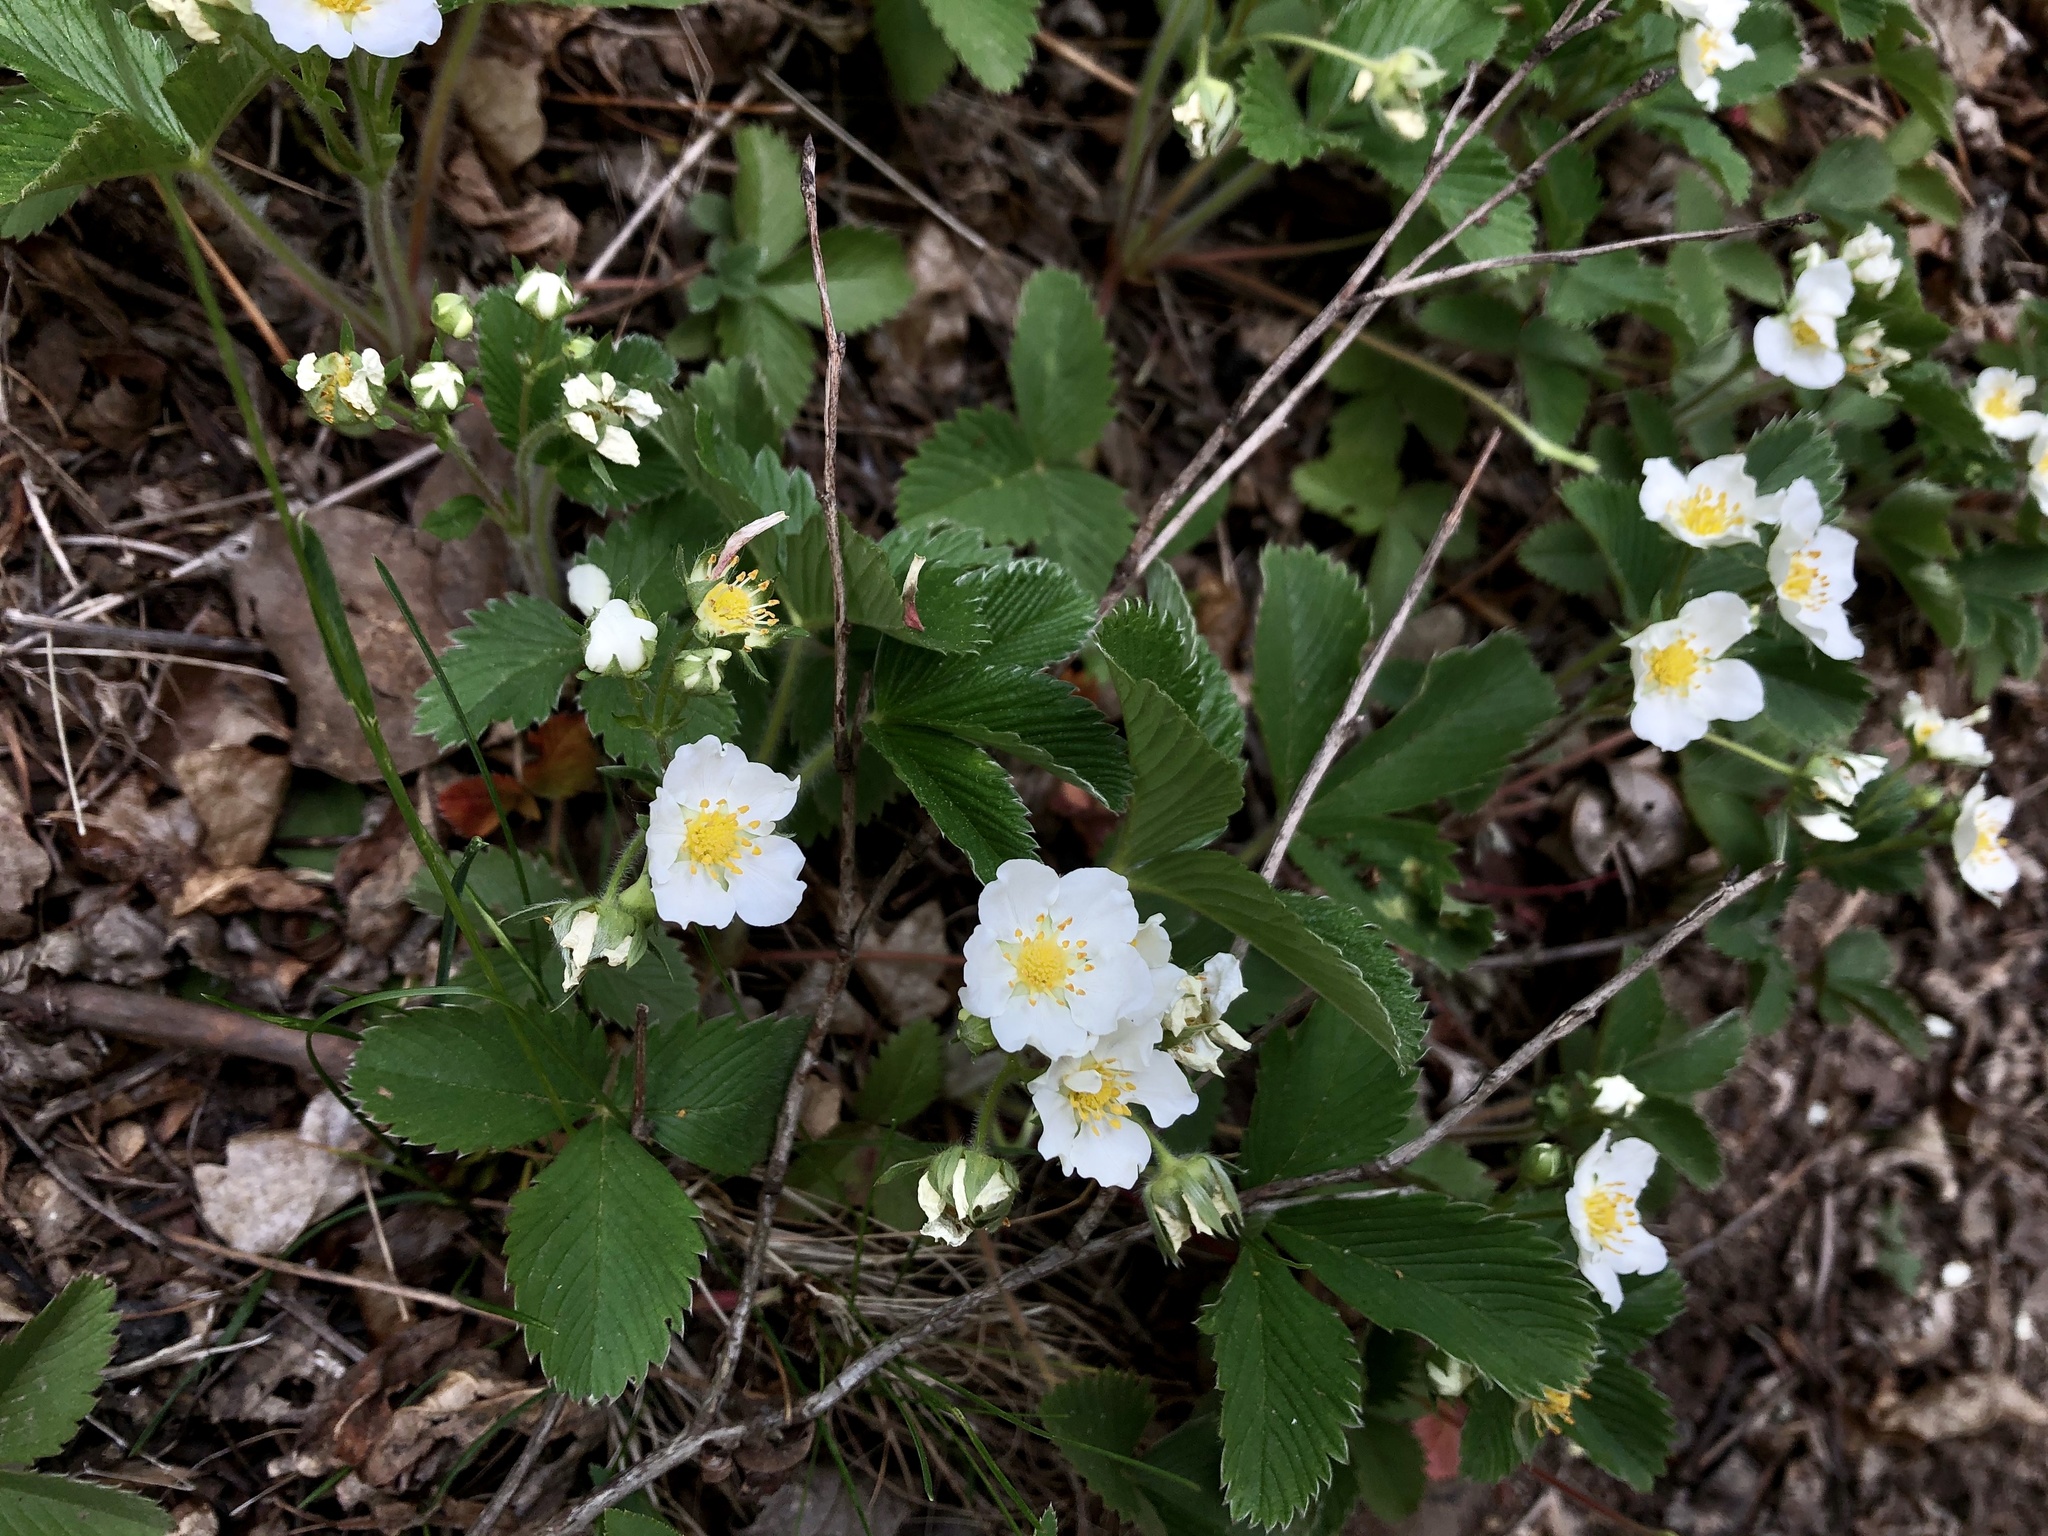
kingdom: Plantae
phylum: Tracheophyta
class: Magnoliopsida
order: Rosales
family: Rosaceae
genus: Fragaria
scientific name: Fragaria viridis
